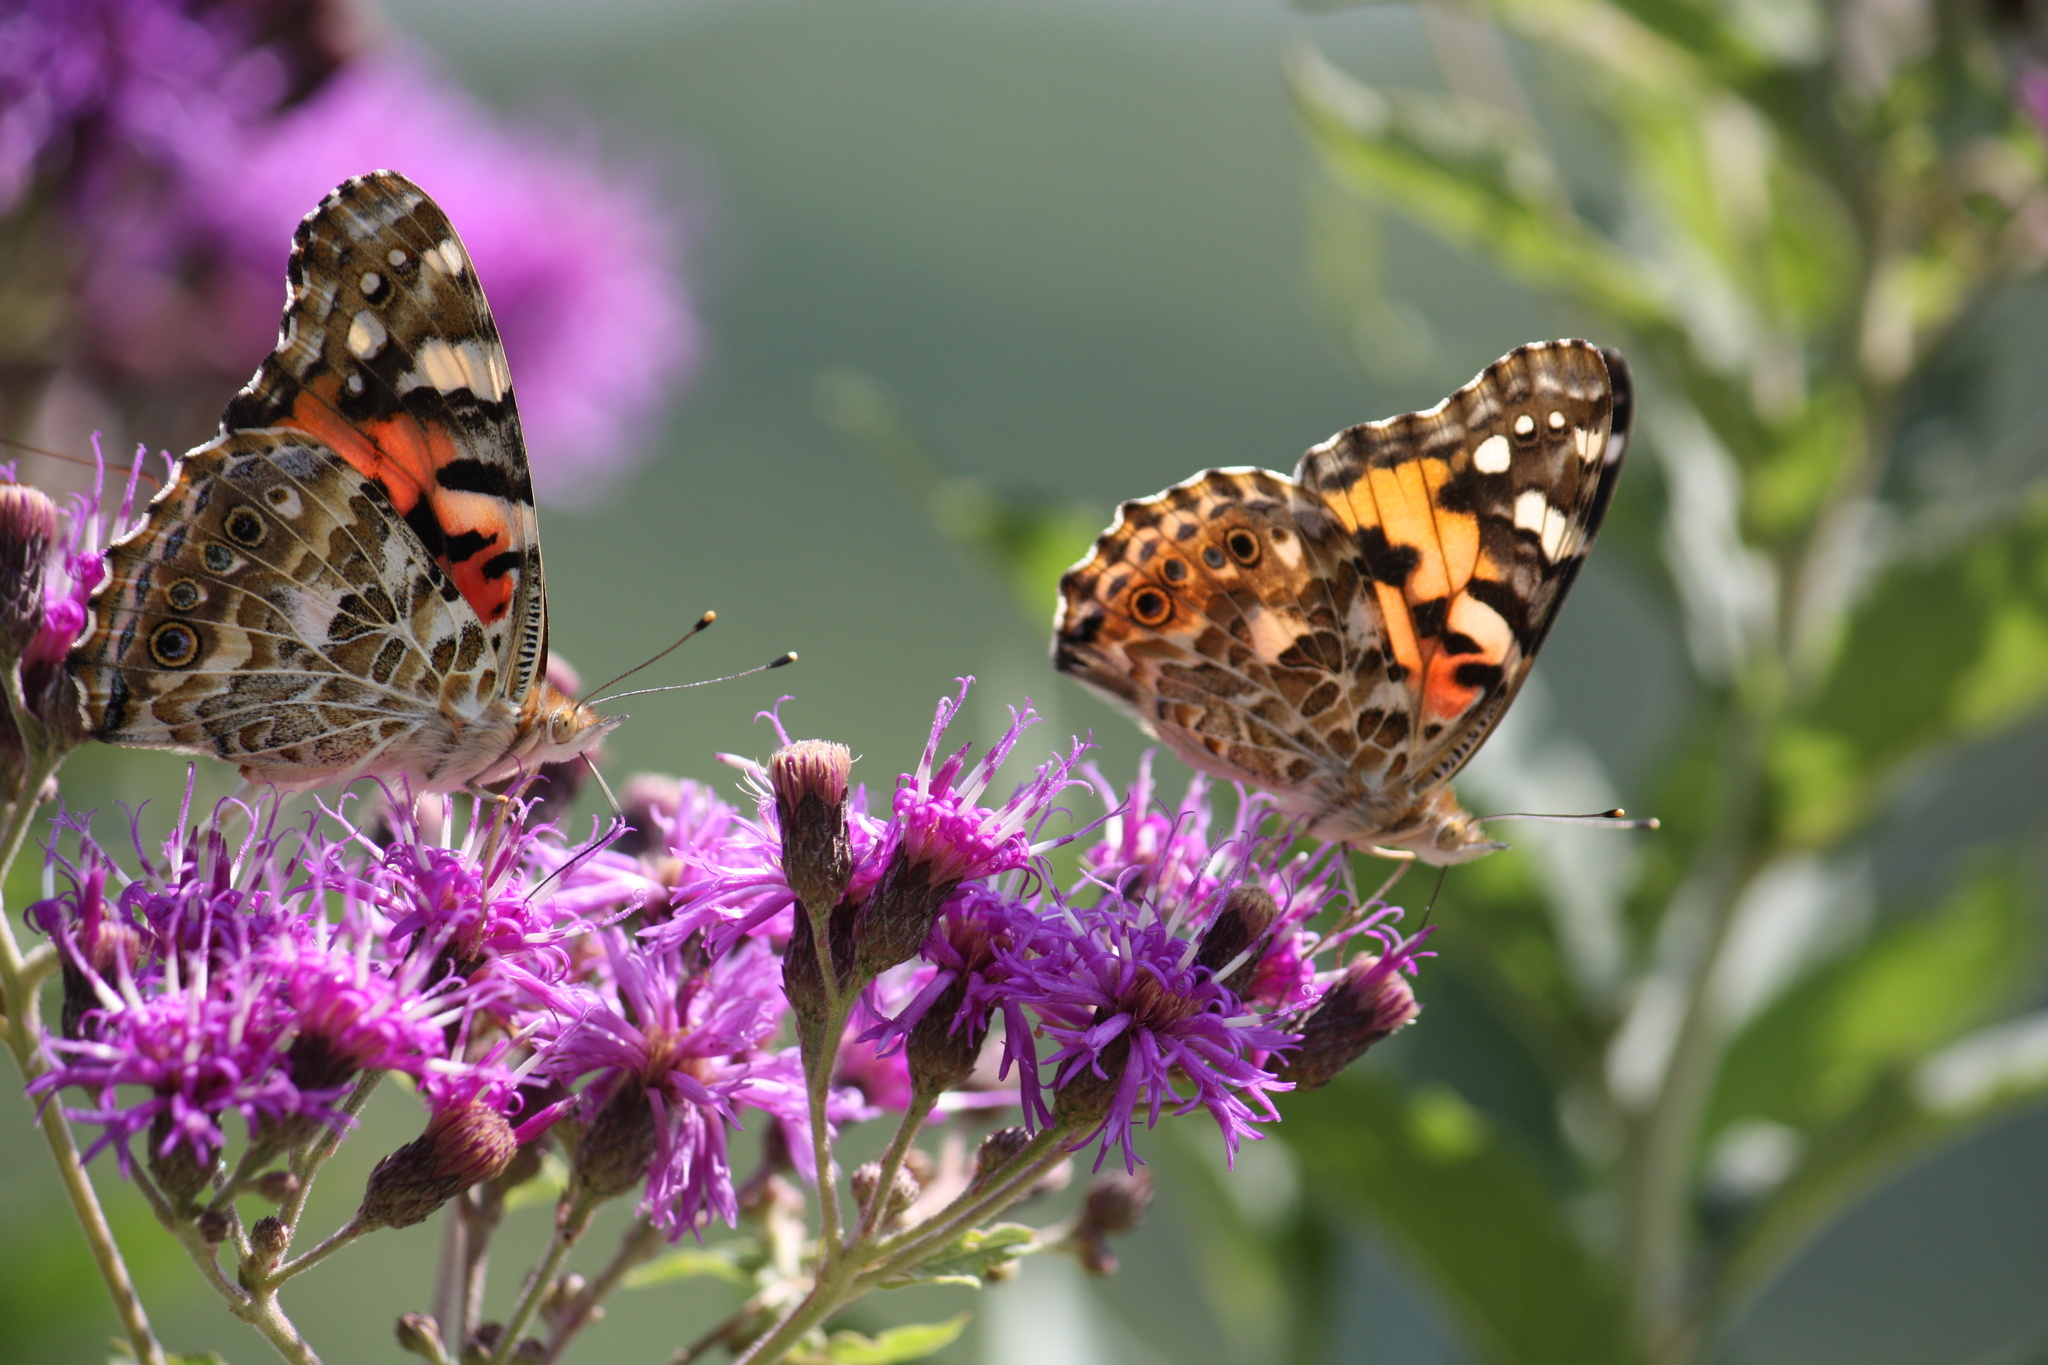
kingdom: Animalia
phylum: Arthropoda
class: Insecta
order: Lepidoptera
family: Nymphalidae
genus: Vanessa
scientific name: Vanessa cardui
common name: Painted lady
